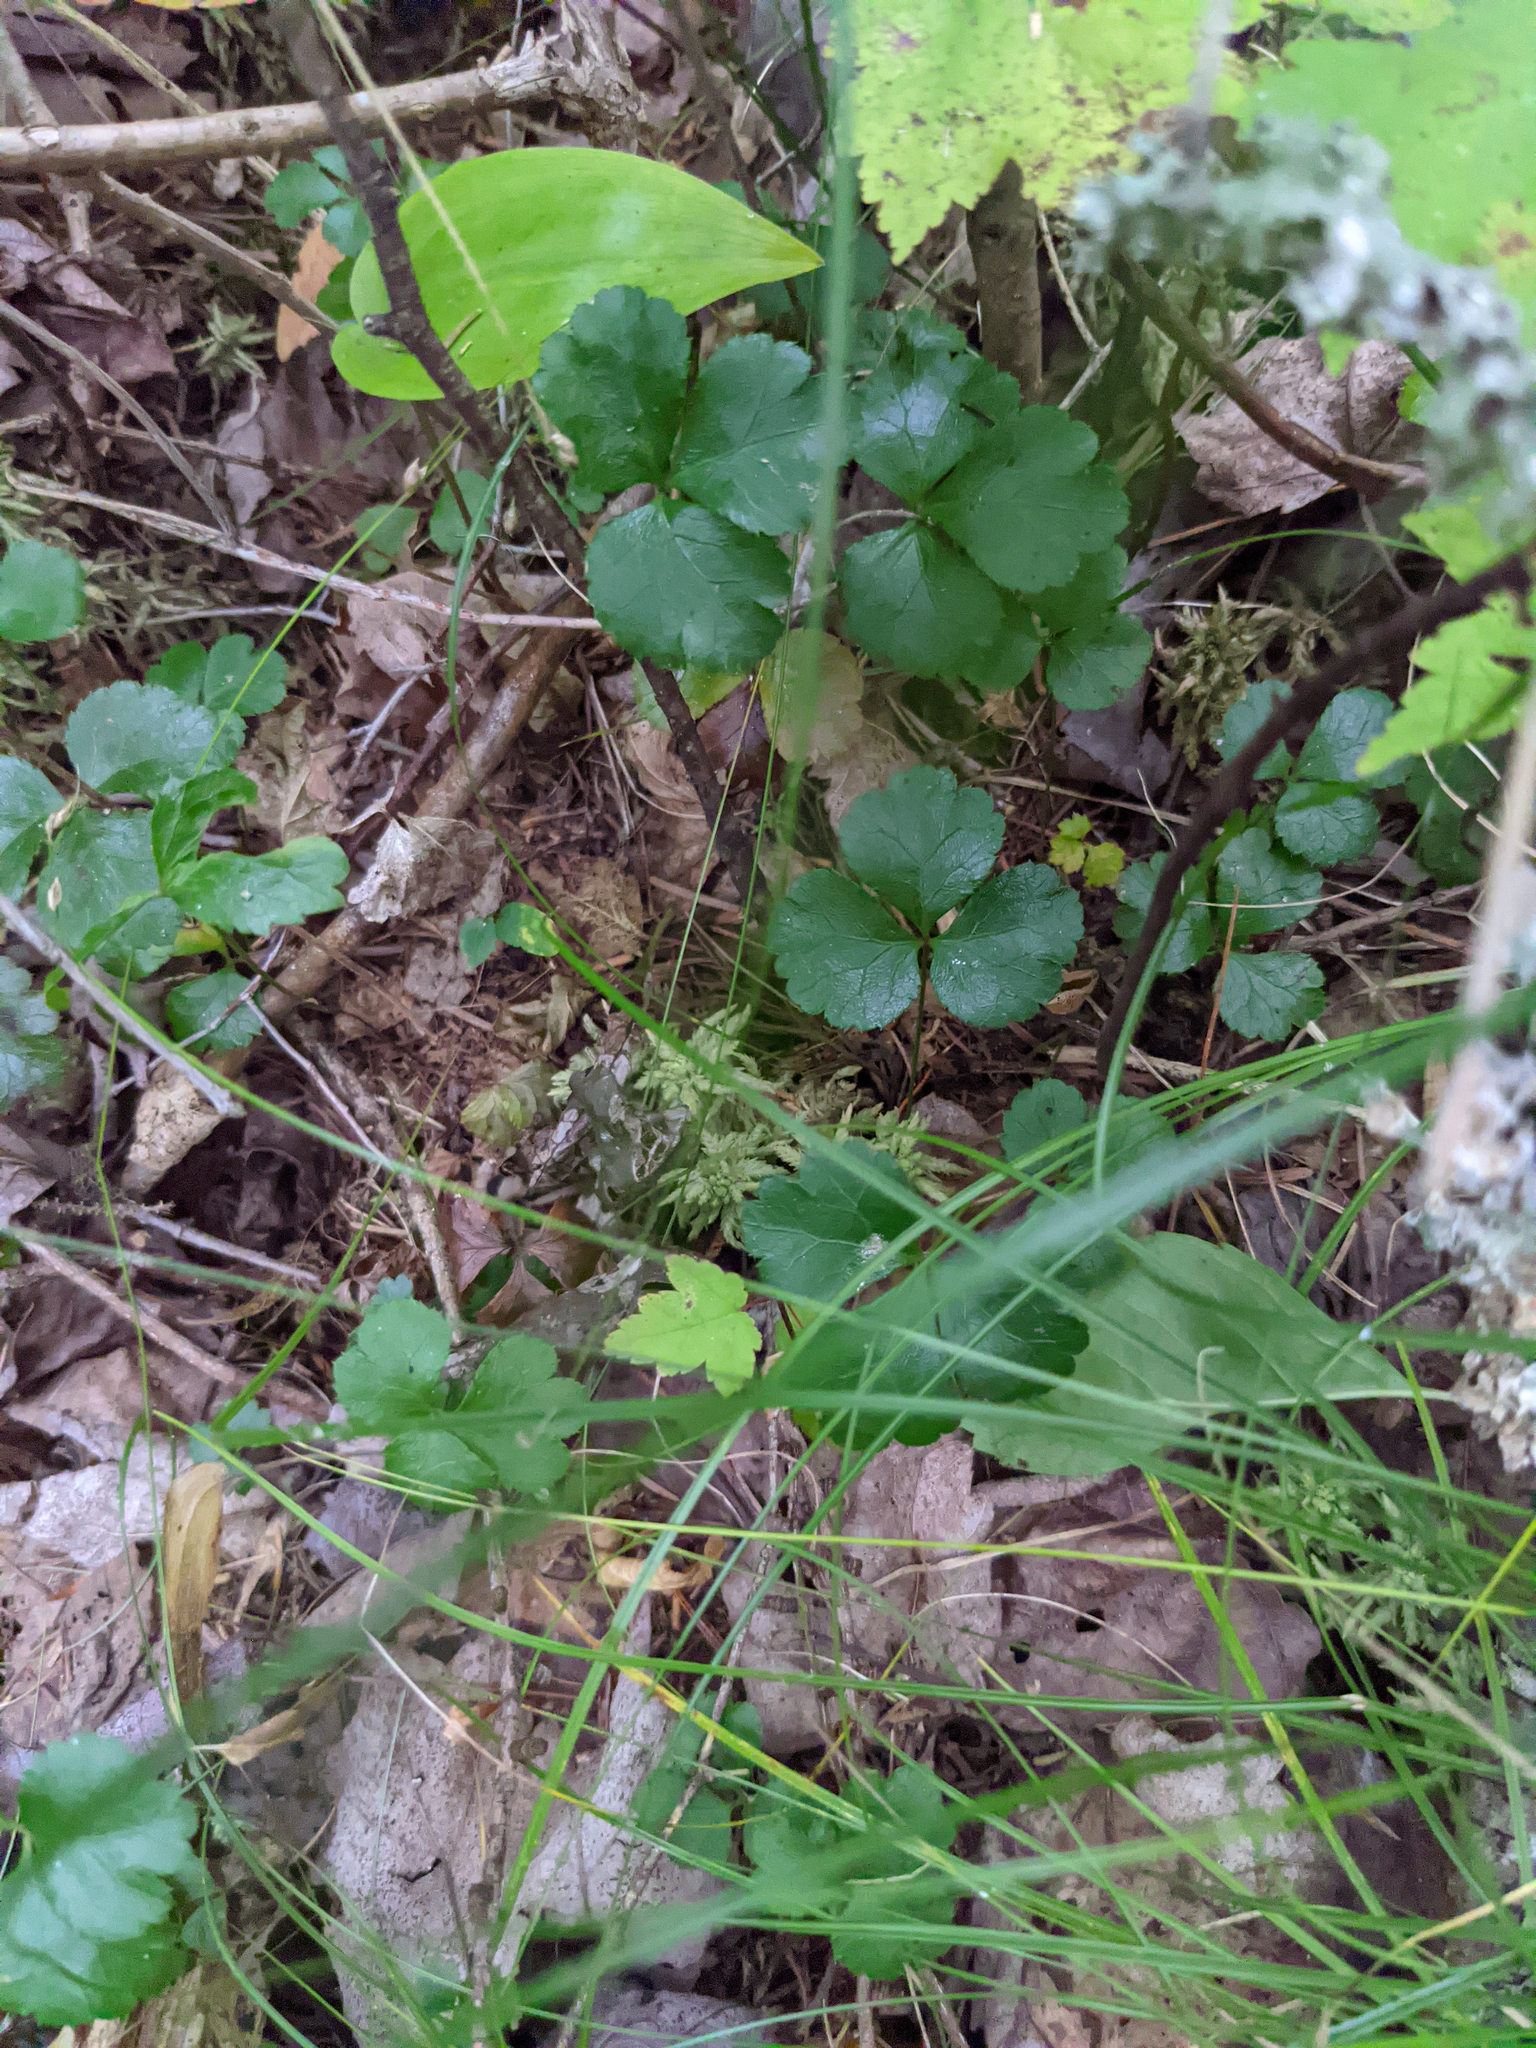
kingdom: Plantae
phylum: Tracheophyta
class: Magnoliopsida
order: Ranunculales
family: Ranunculaceae
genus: Coptis
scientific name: Coptis trifolia
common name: Canker-root
